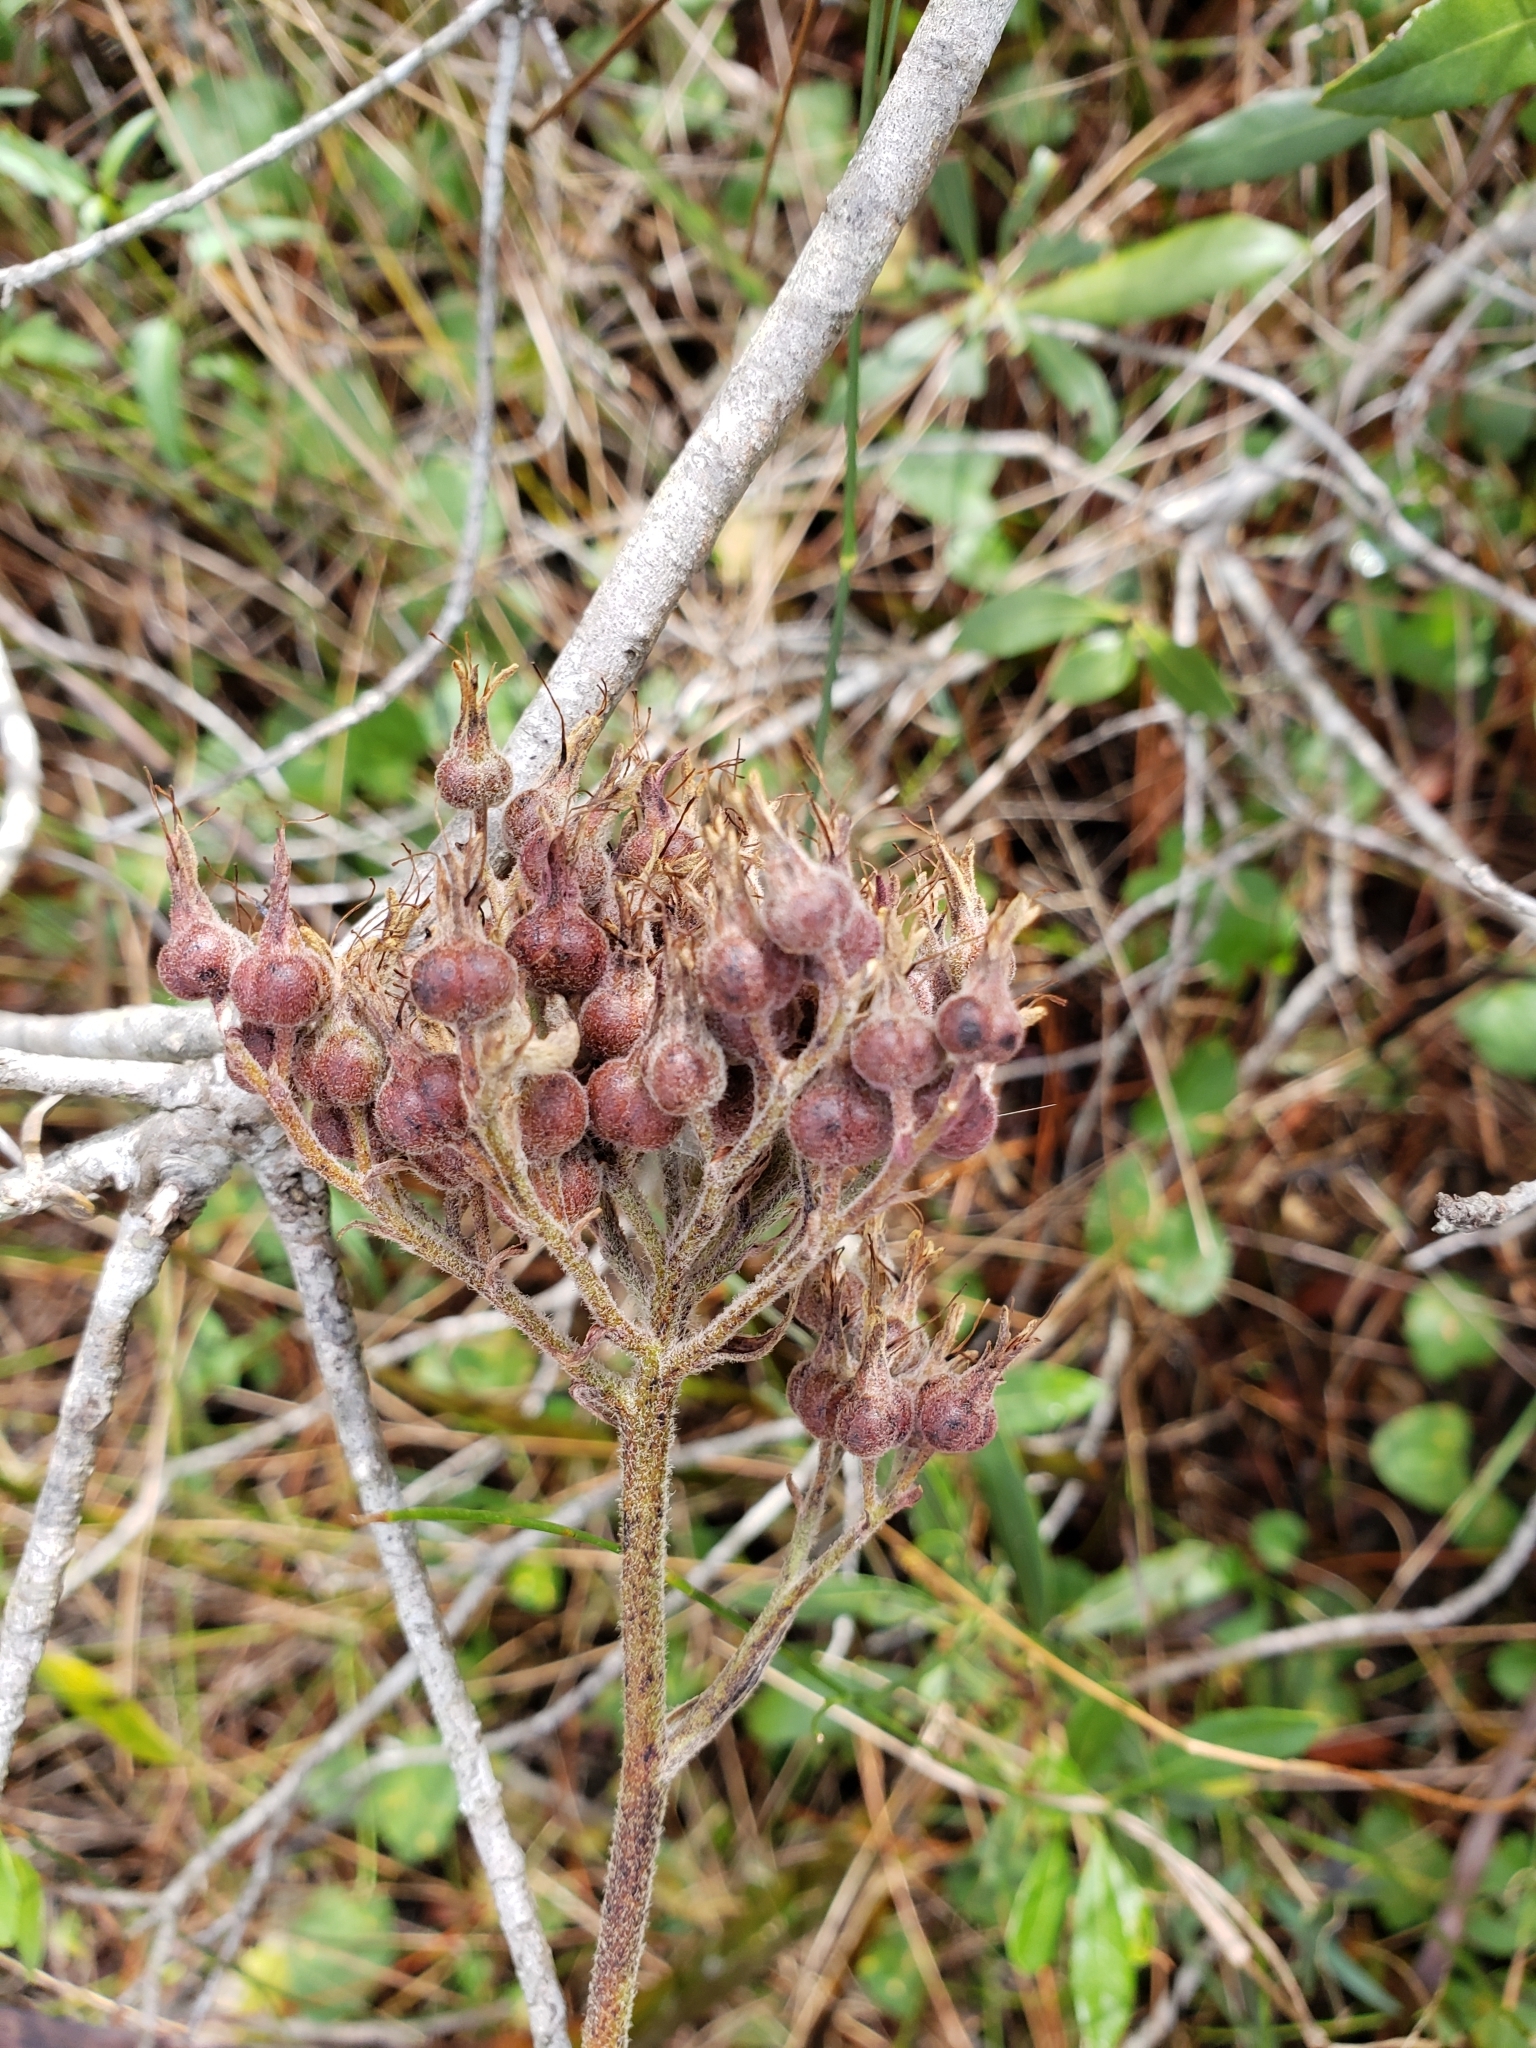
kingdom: Plantae
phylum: Tracheophyta
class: Liliopsida
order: Commelinales
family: Haemodoraceae
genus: Lachnanthes
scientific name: Lachnanthes caroliana
